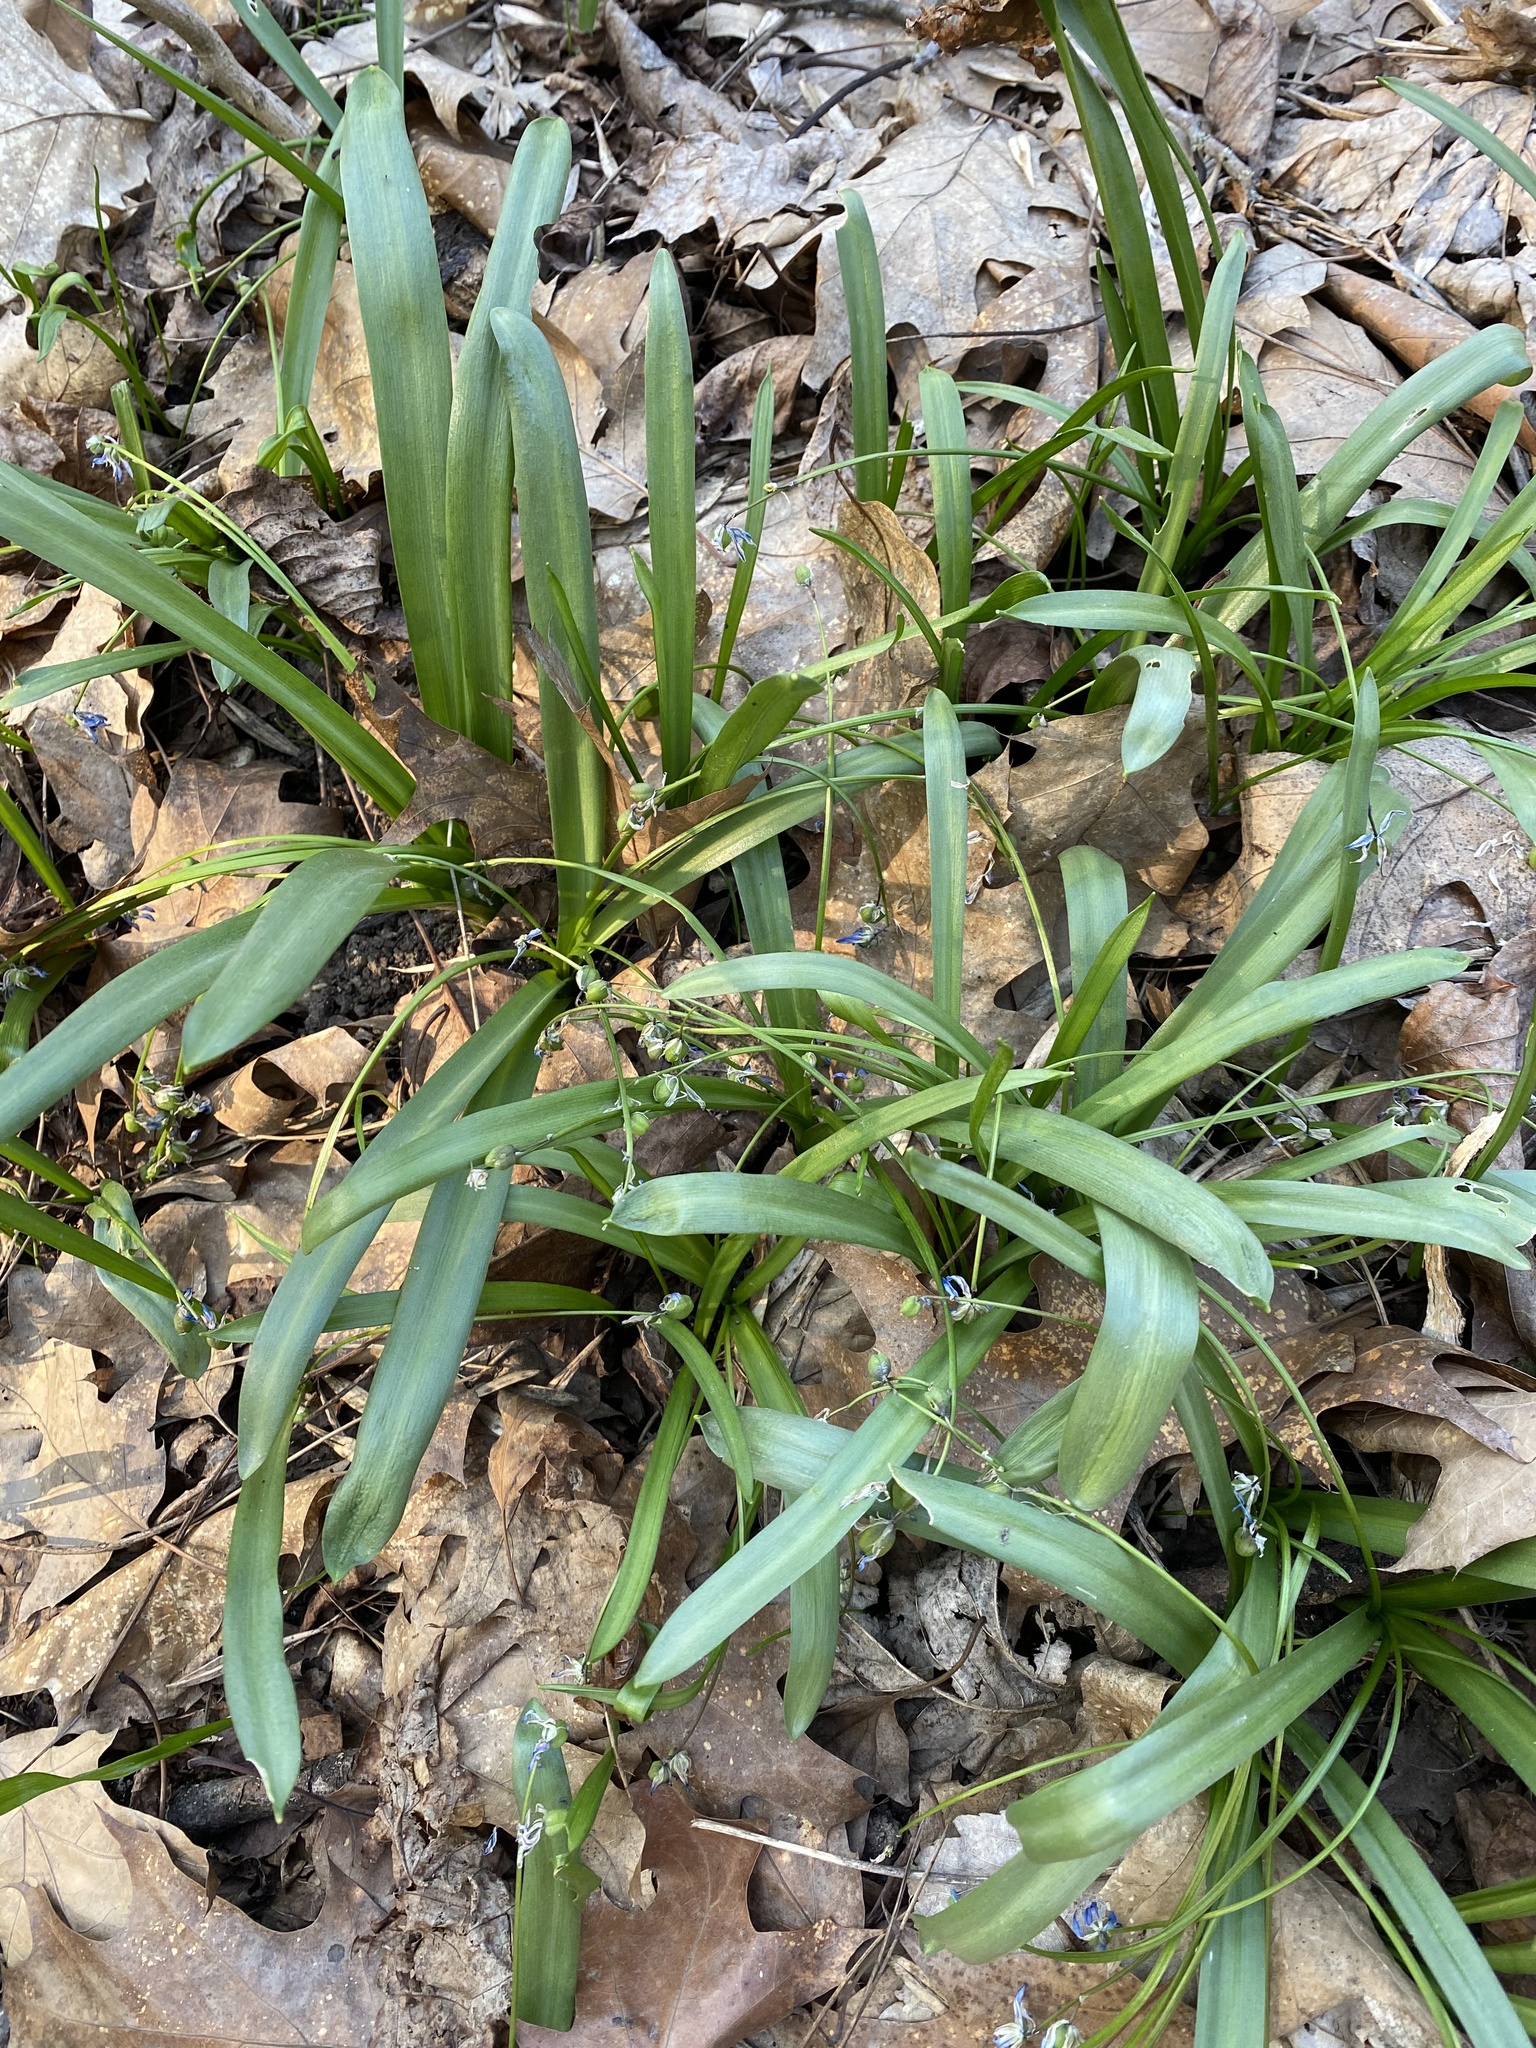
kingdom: Plantae
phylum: Tracheophyta
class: Liliopsida
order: Asparagales
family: Asparagaceae
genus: Scilla
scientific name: Scilla siberica
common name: Siberian squill
